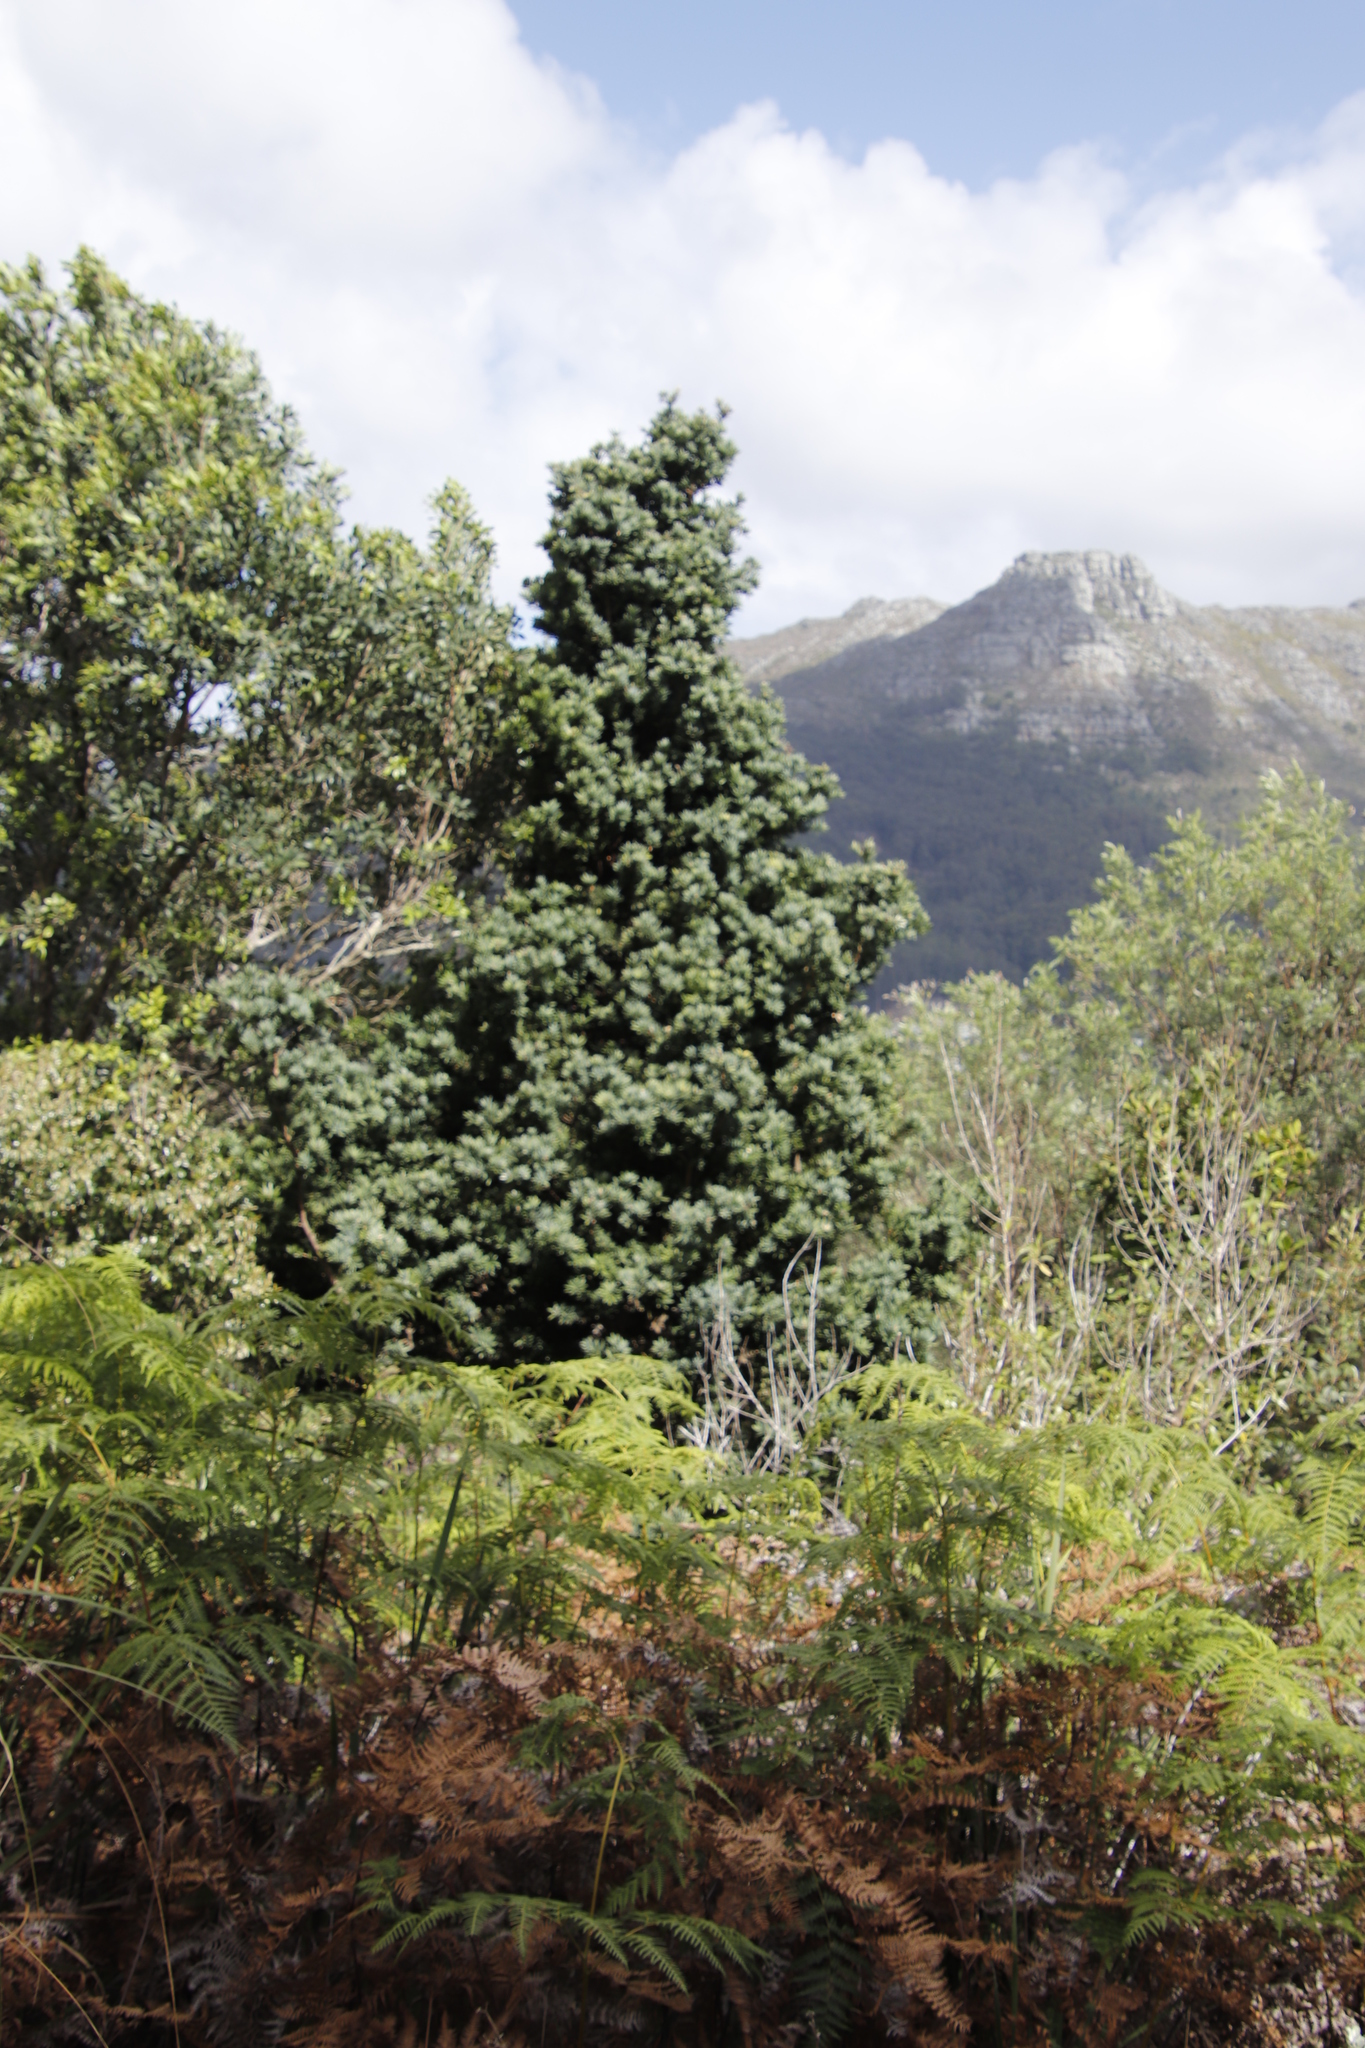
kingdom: Plantae
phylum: Tracheophyta
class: Pinopsida
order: Pinales
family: Podocarpaceae
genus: Podocarpus
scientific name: Podocarpus latifolius
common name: True yellowwood
